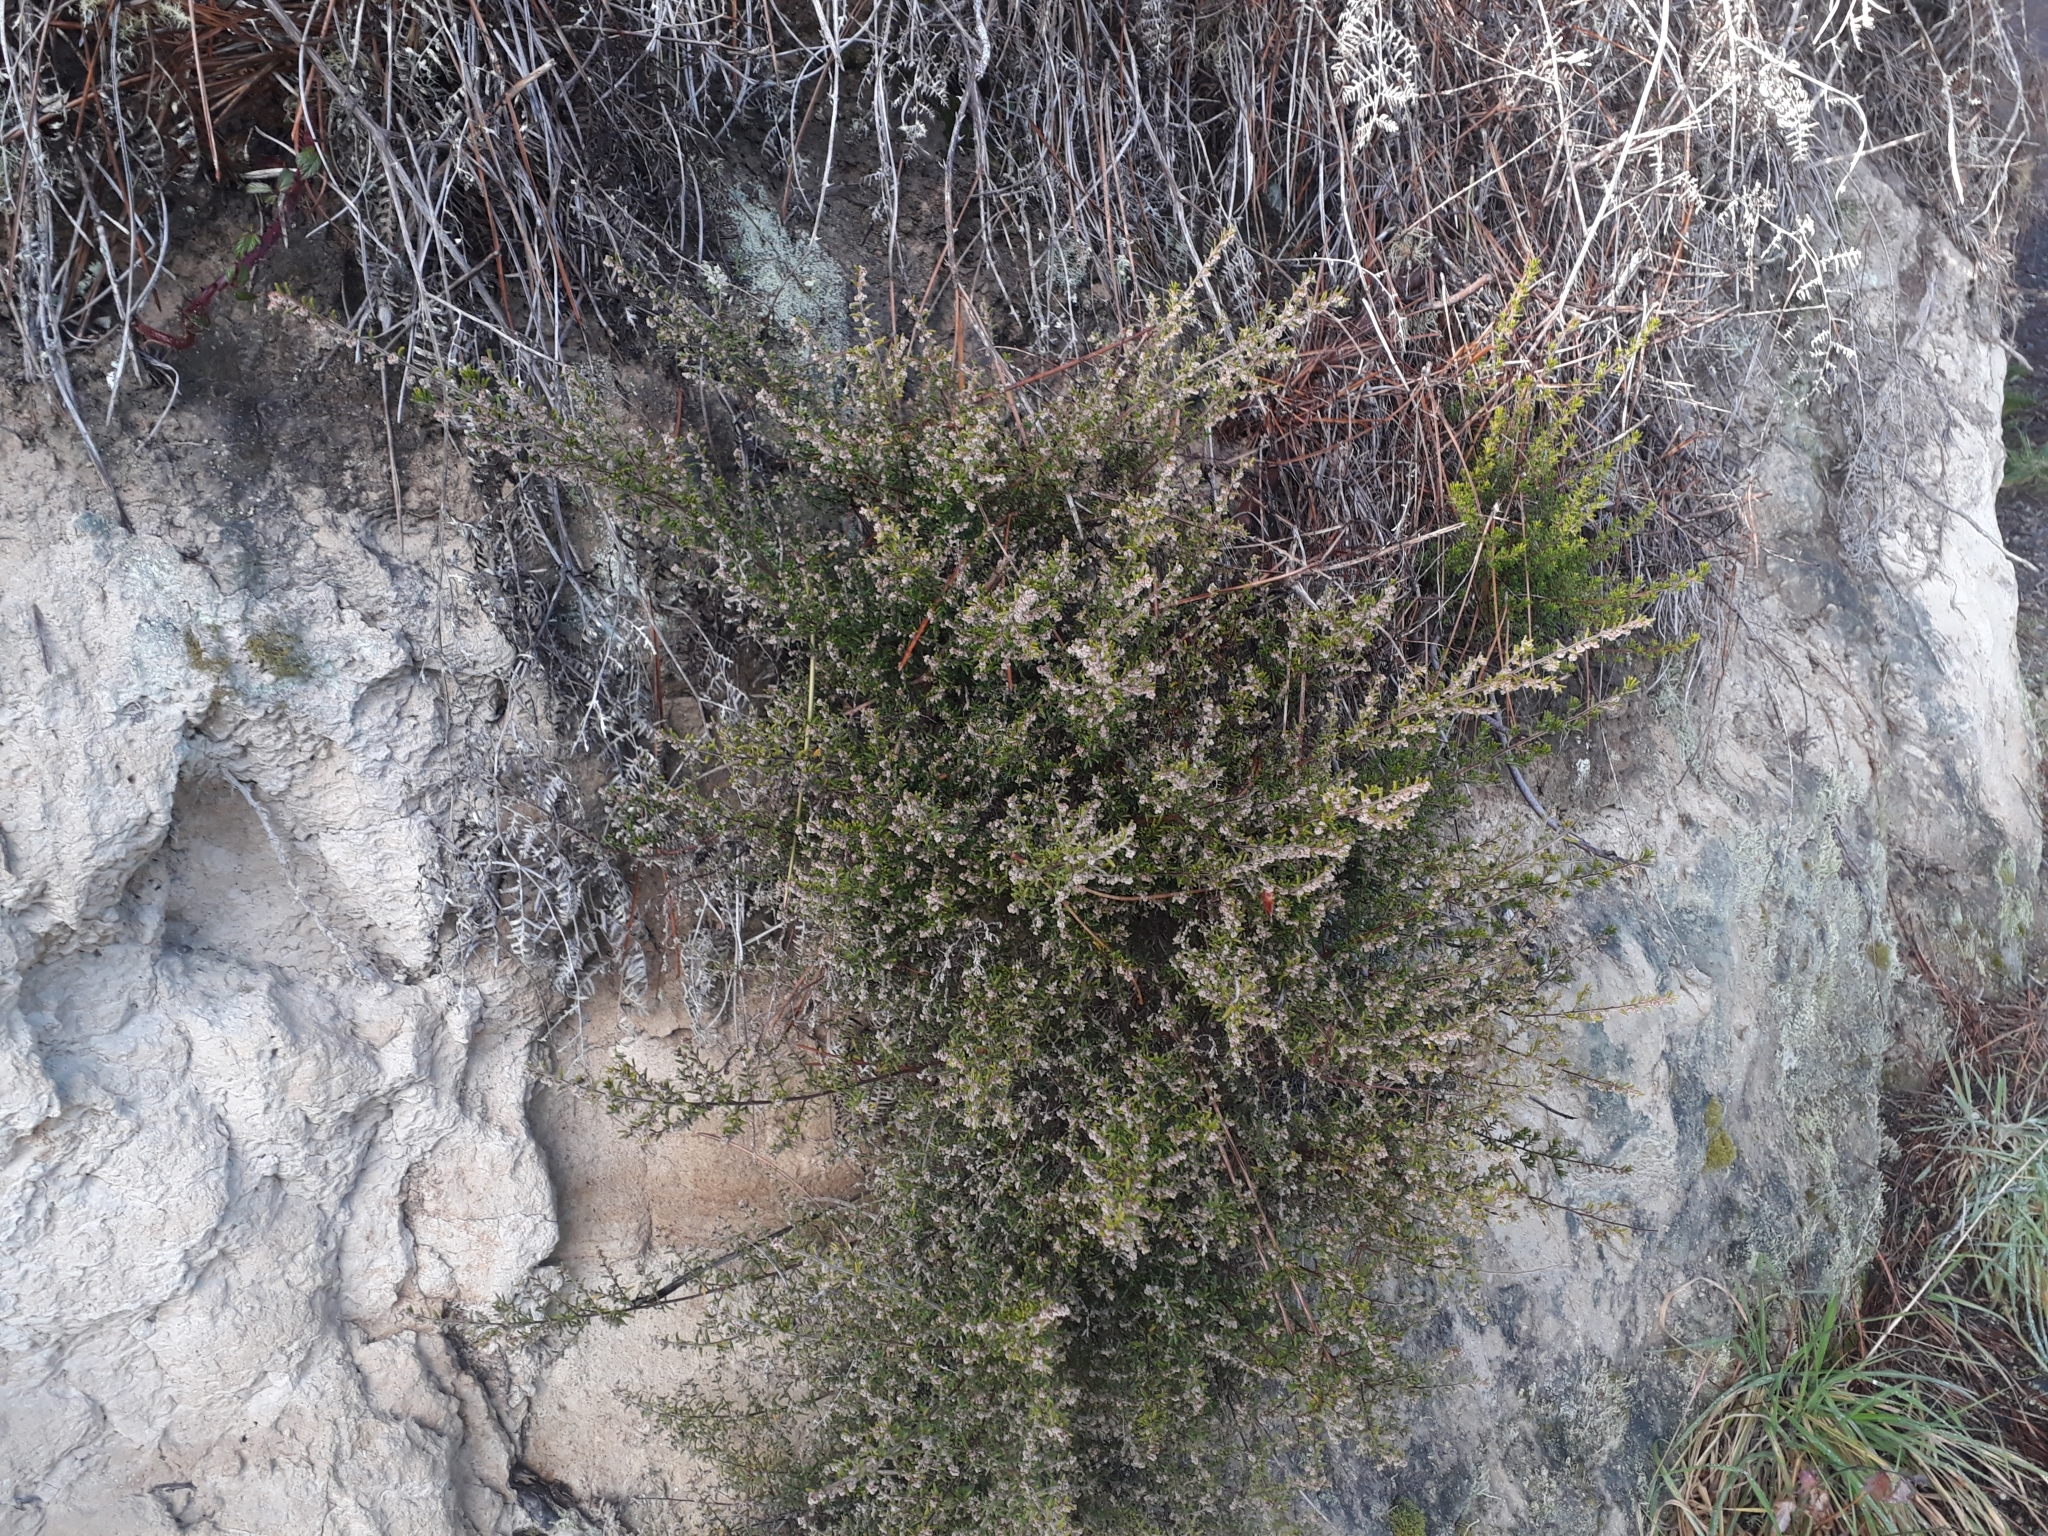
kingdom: Plantae
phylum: Tracheophyta
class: Magnoliopsida
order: Rosales
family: Rhamnaceae
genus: Pomaderris
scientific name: Pomaderris amoena
